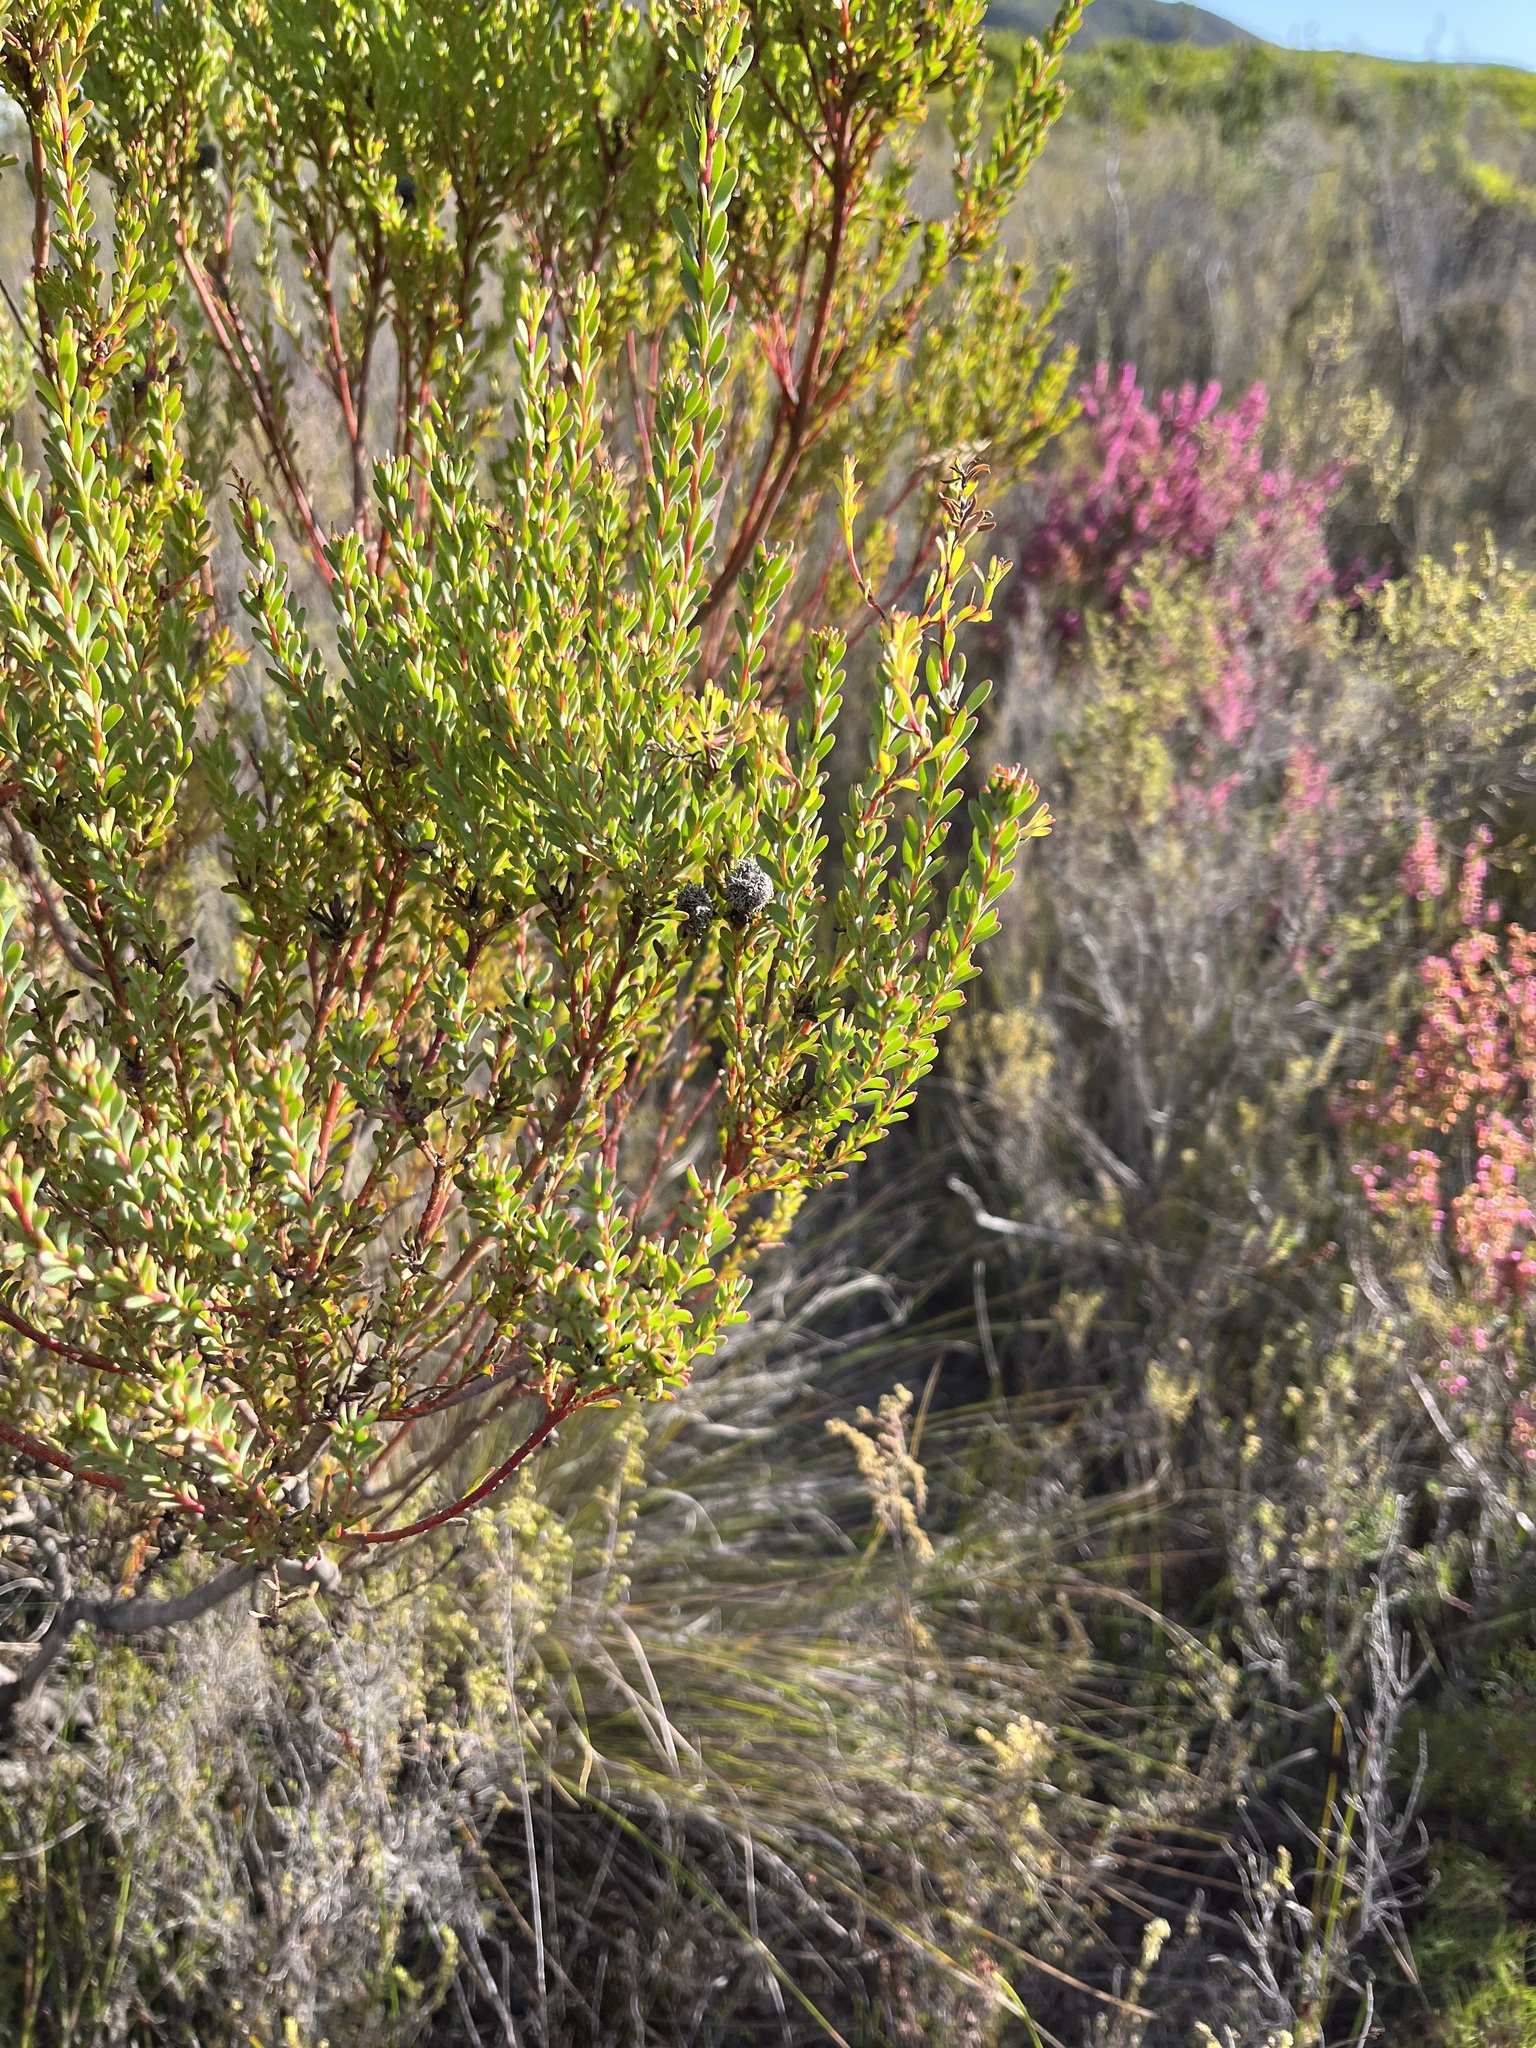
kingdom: Plantae
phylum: Tracheophyta
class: Magnoliopsida
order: Proteales
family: Proteaceae
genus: Leucadendron
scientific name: Leucadendron linifolium
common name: Line-leaf conebush
